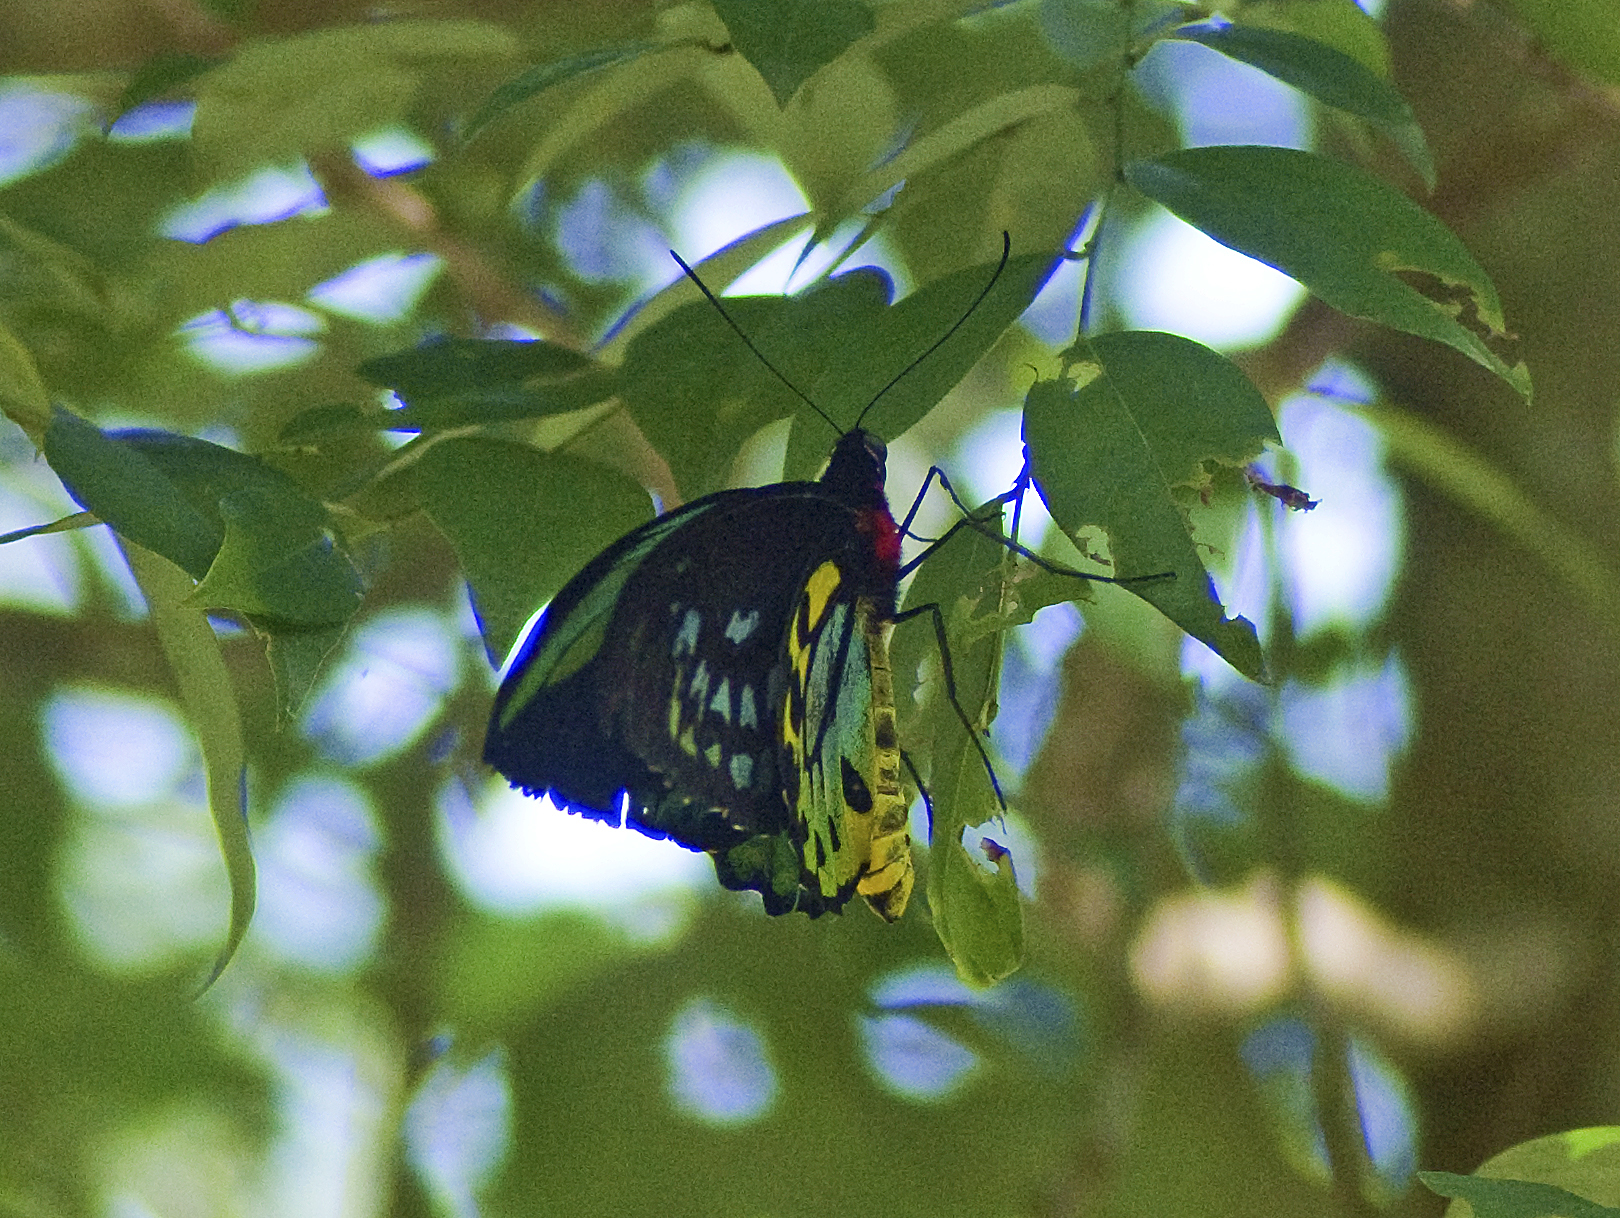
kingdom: Animalia
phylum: Arthropoda
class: Insecta
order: Lepidoptera
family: Papilionidae
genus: Ornithoptera
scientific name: Ornithoptera euphorion
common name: Cairns birdwing
